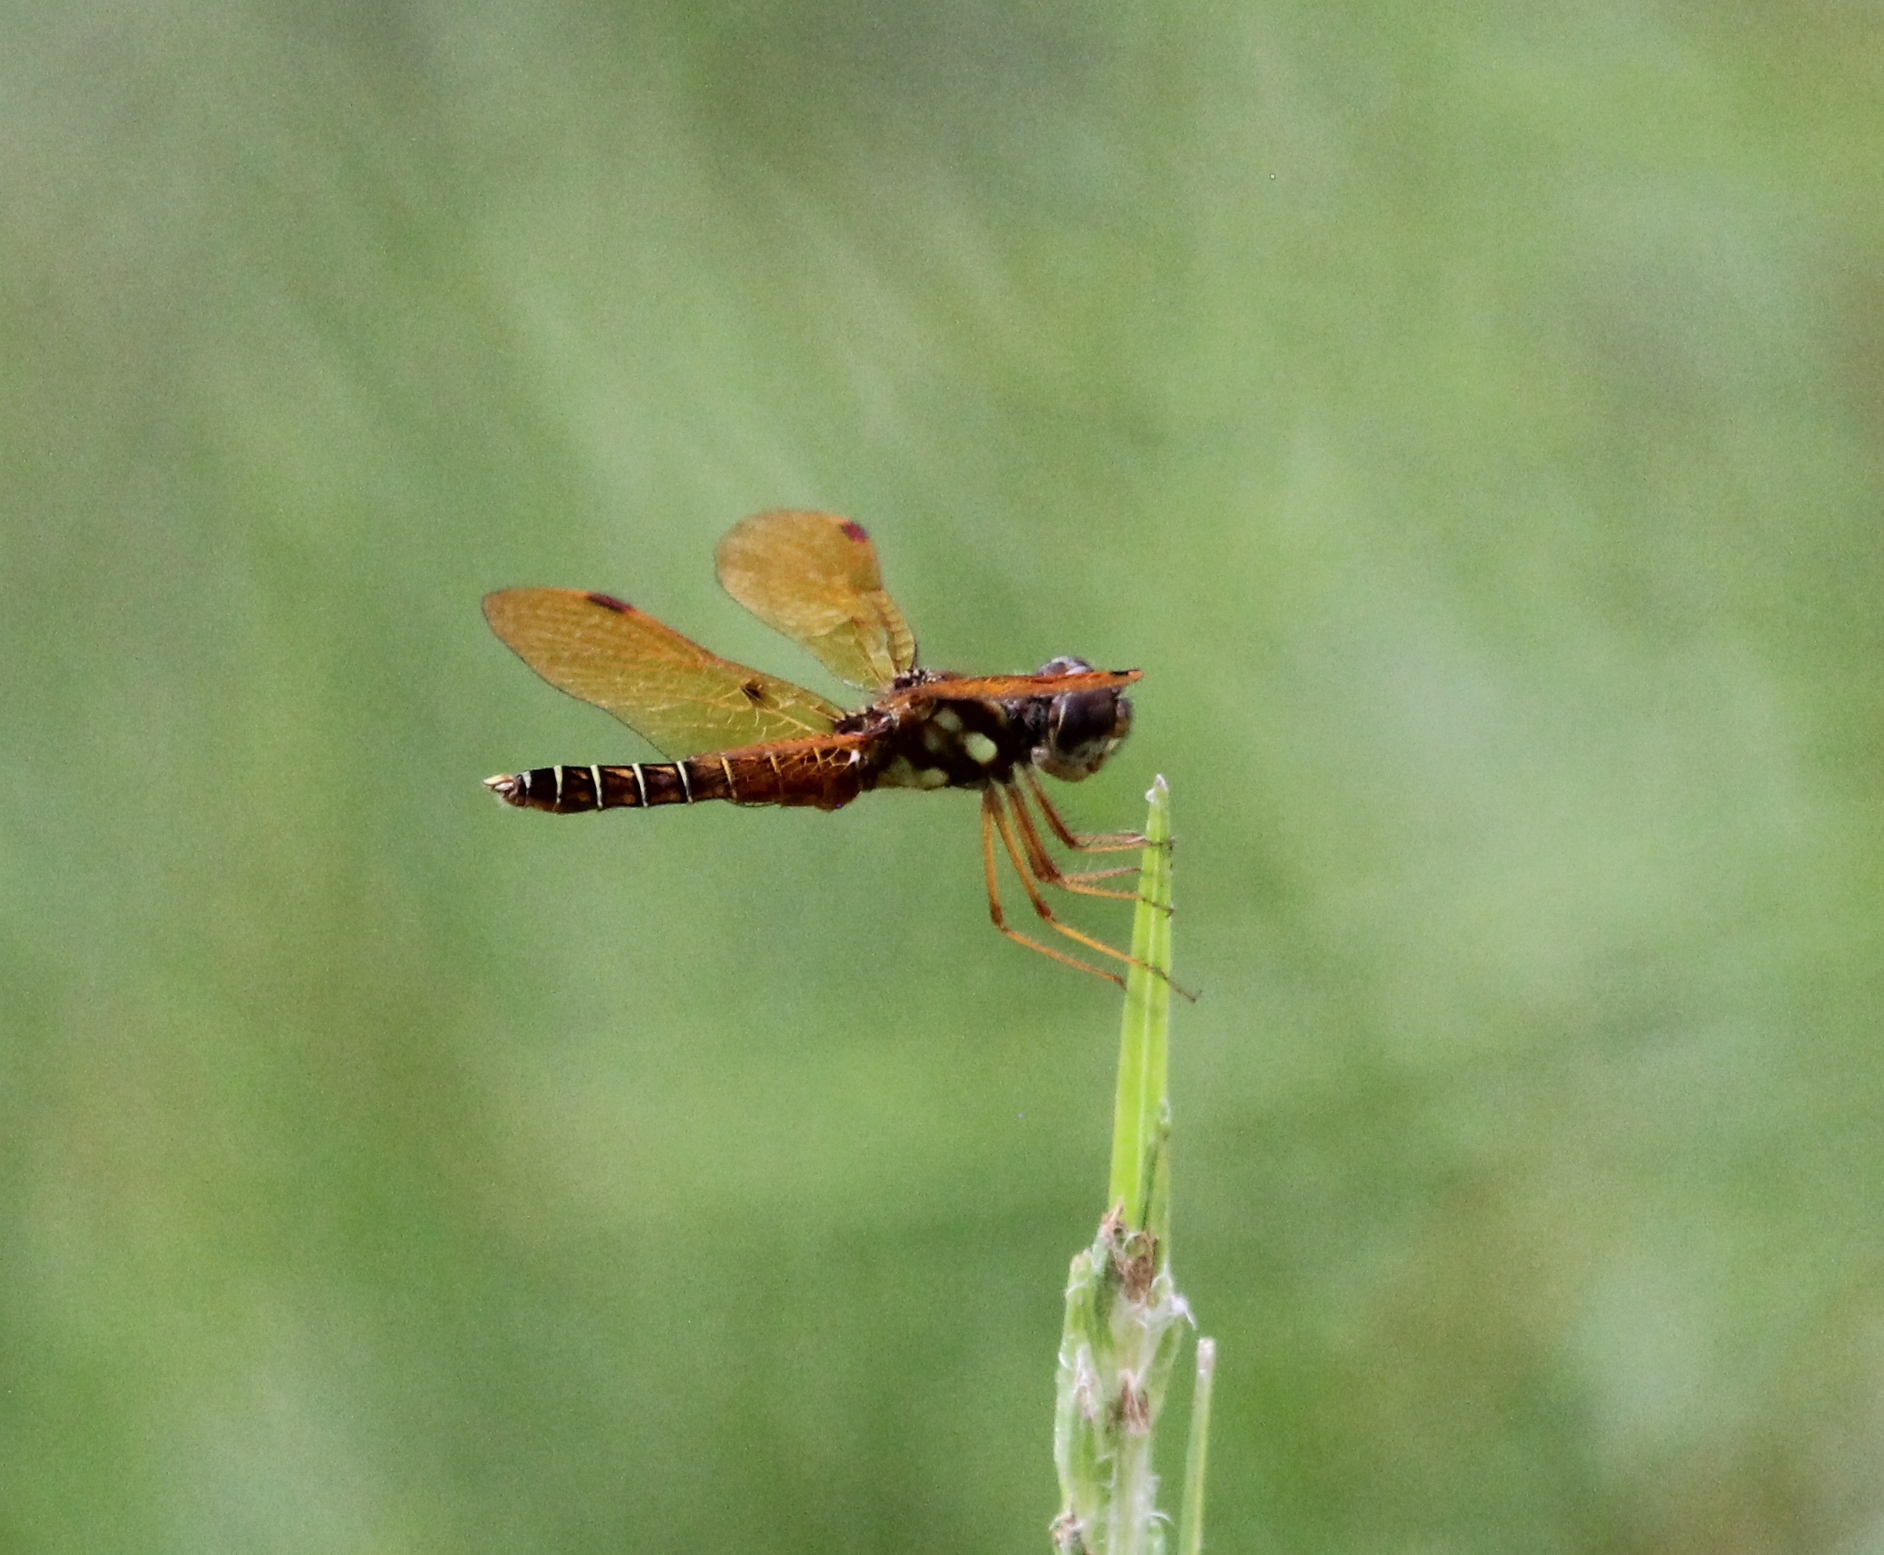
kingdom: Animalia
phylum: Arthropoda
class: Insecta
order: Odonata
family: Libellulidae
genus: Perithemis
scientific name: Perithemis tenera
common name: Eastern amberwing
